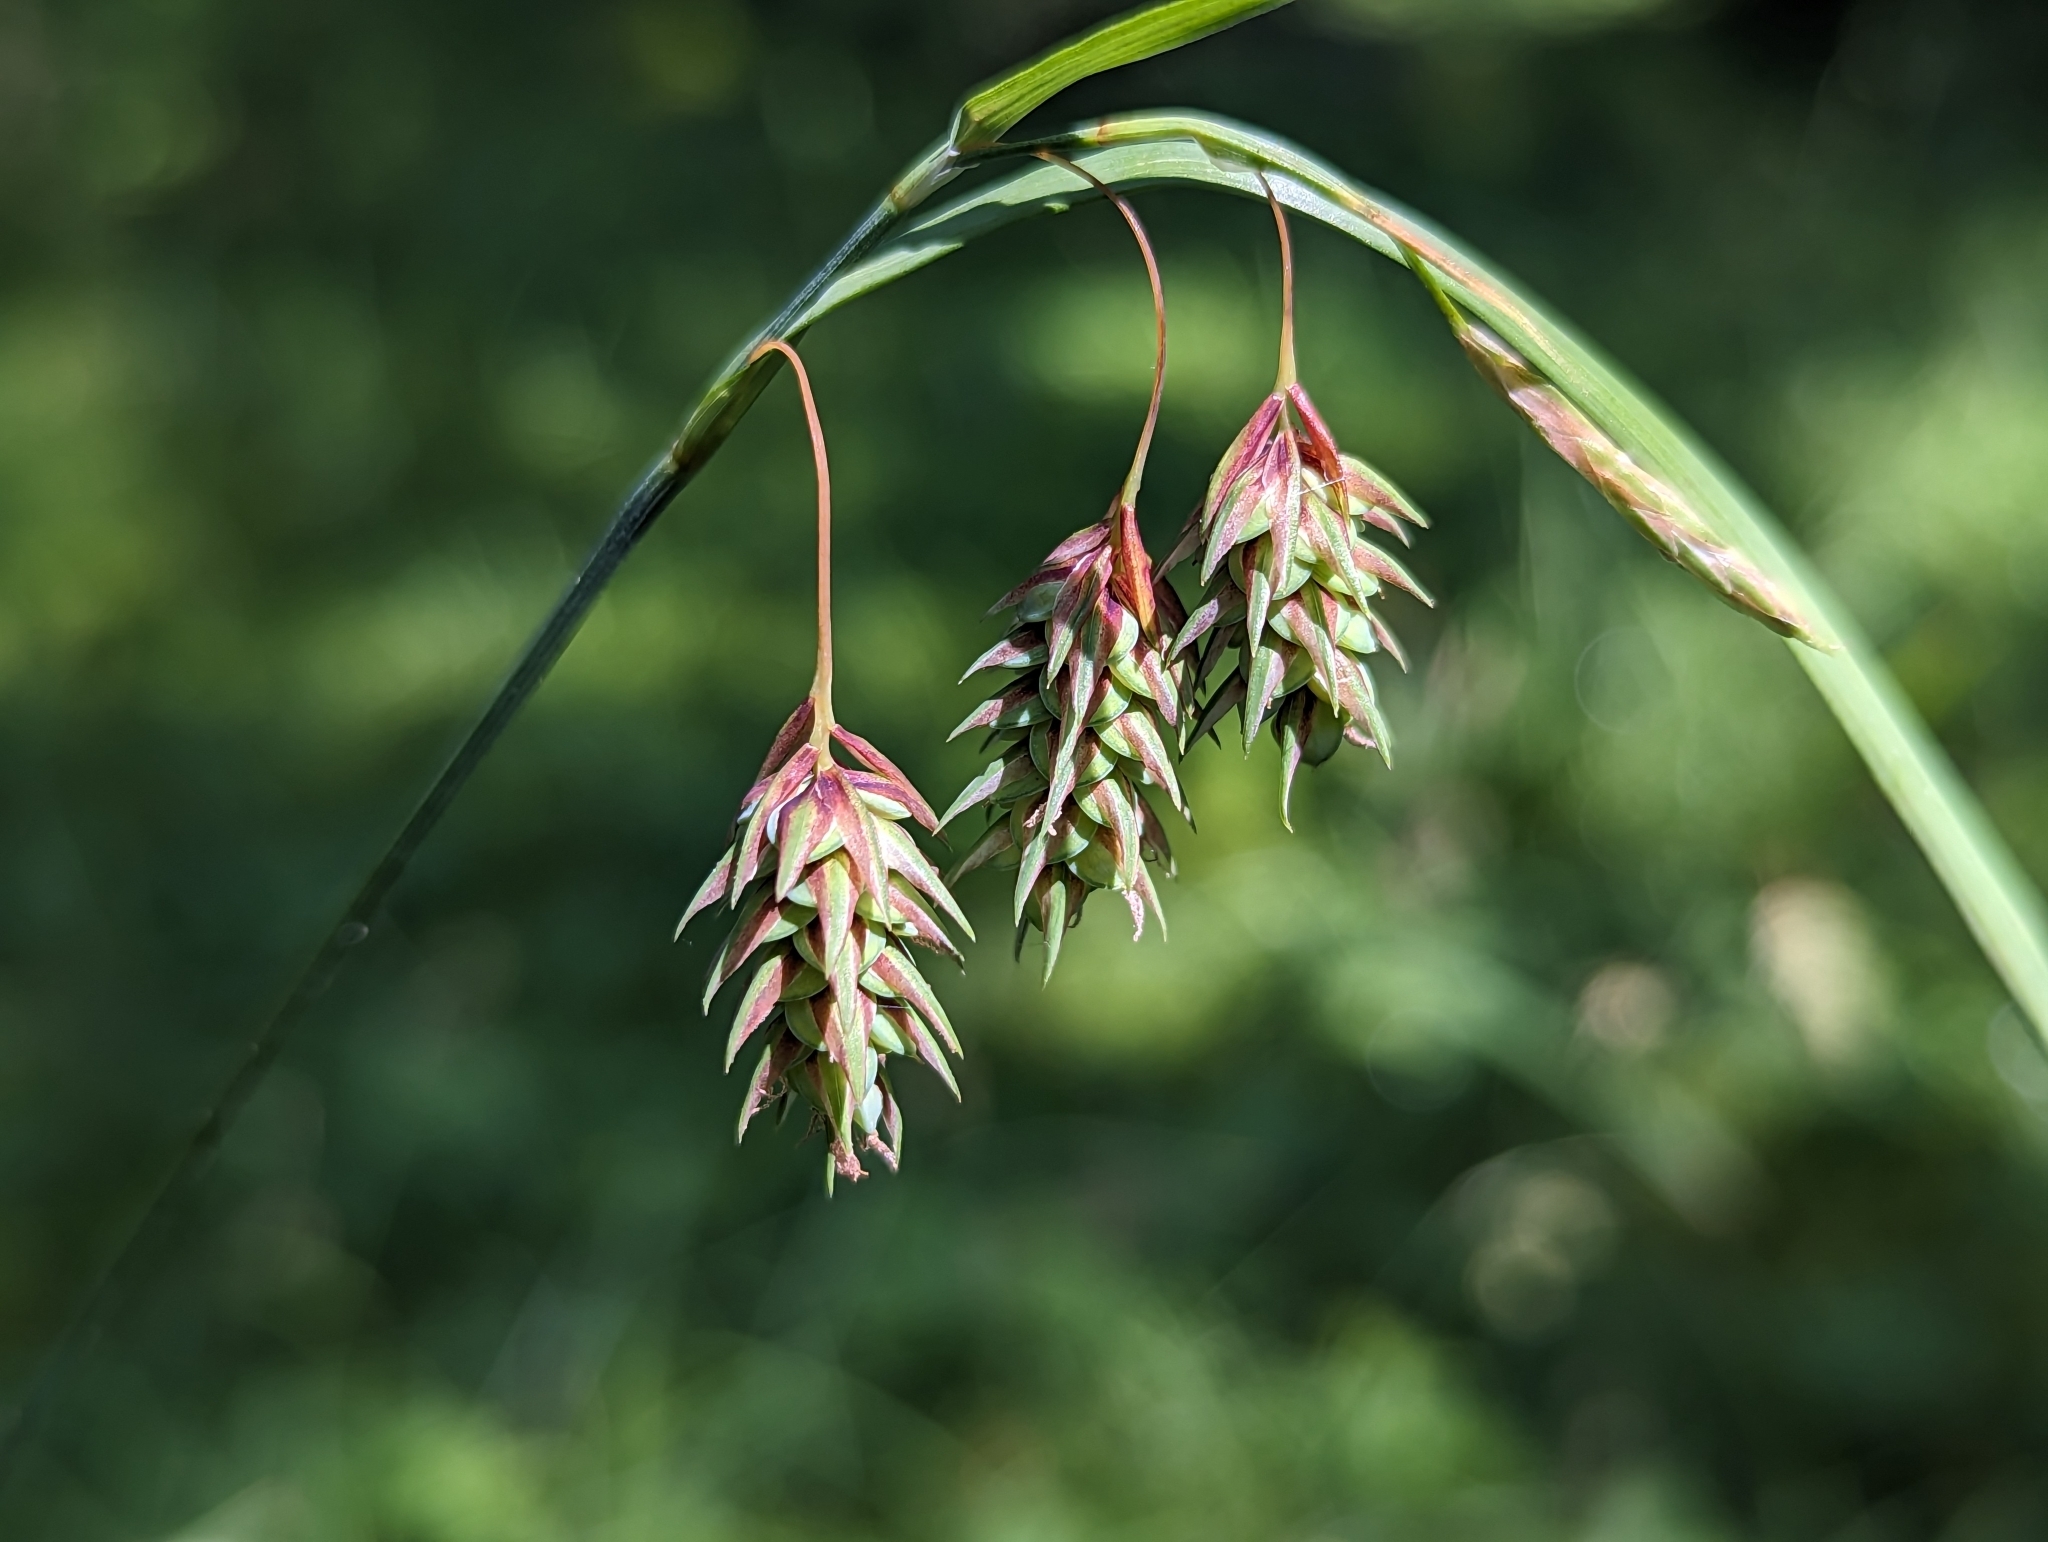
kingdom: Plantae
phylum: Tracheophyta
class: Liliopsida
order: Poales
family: Cyperaceae
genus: Carex
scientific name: Carex magellanica
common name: Bog sedge
